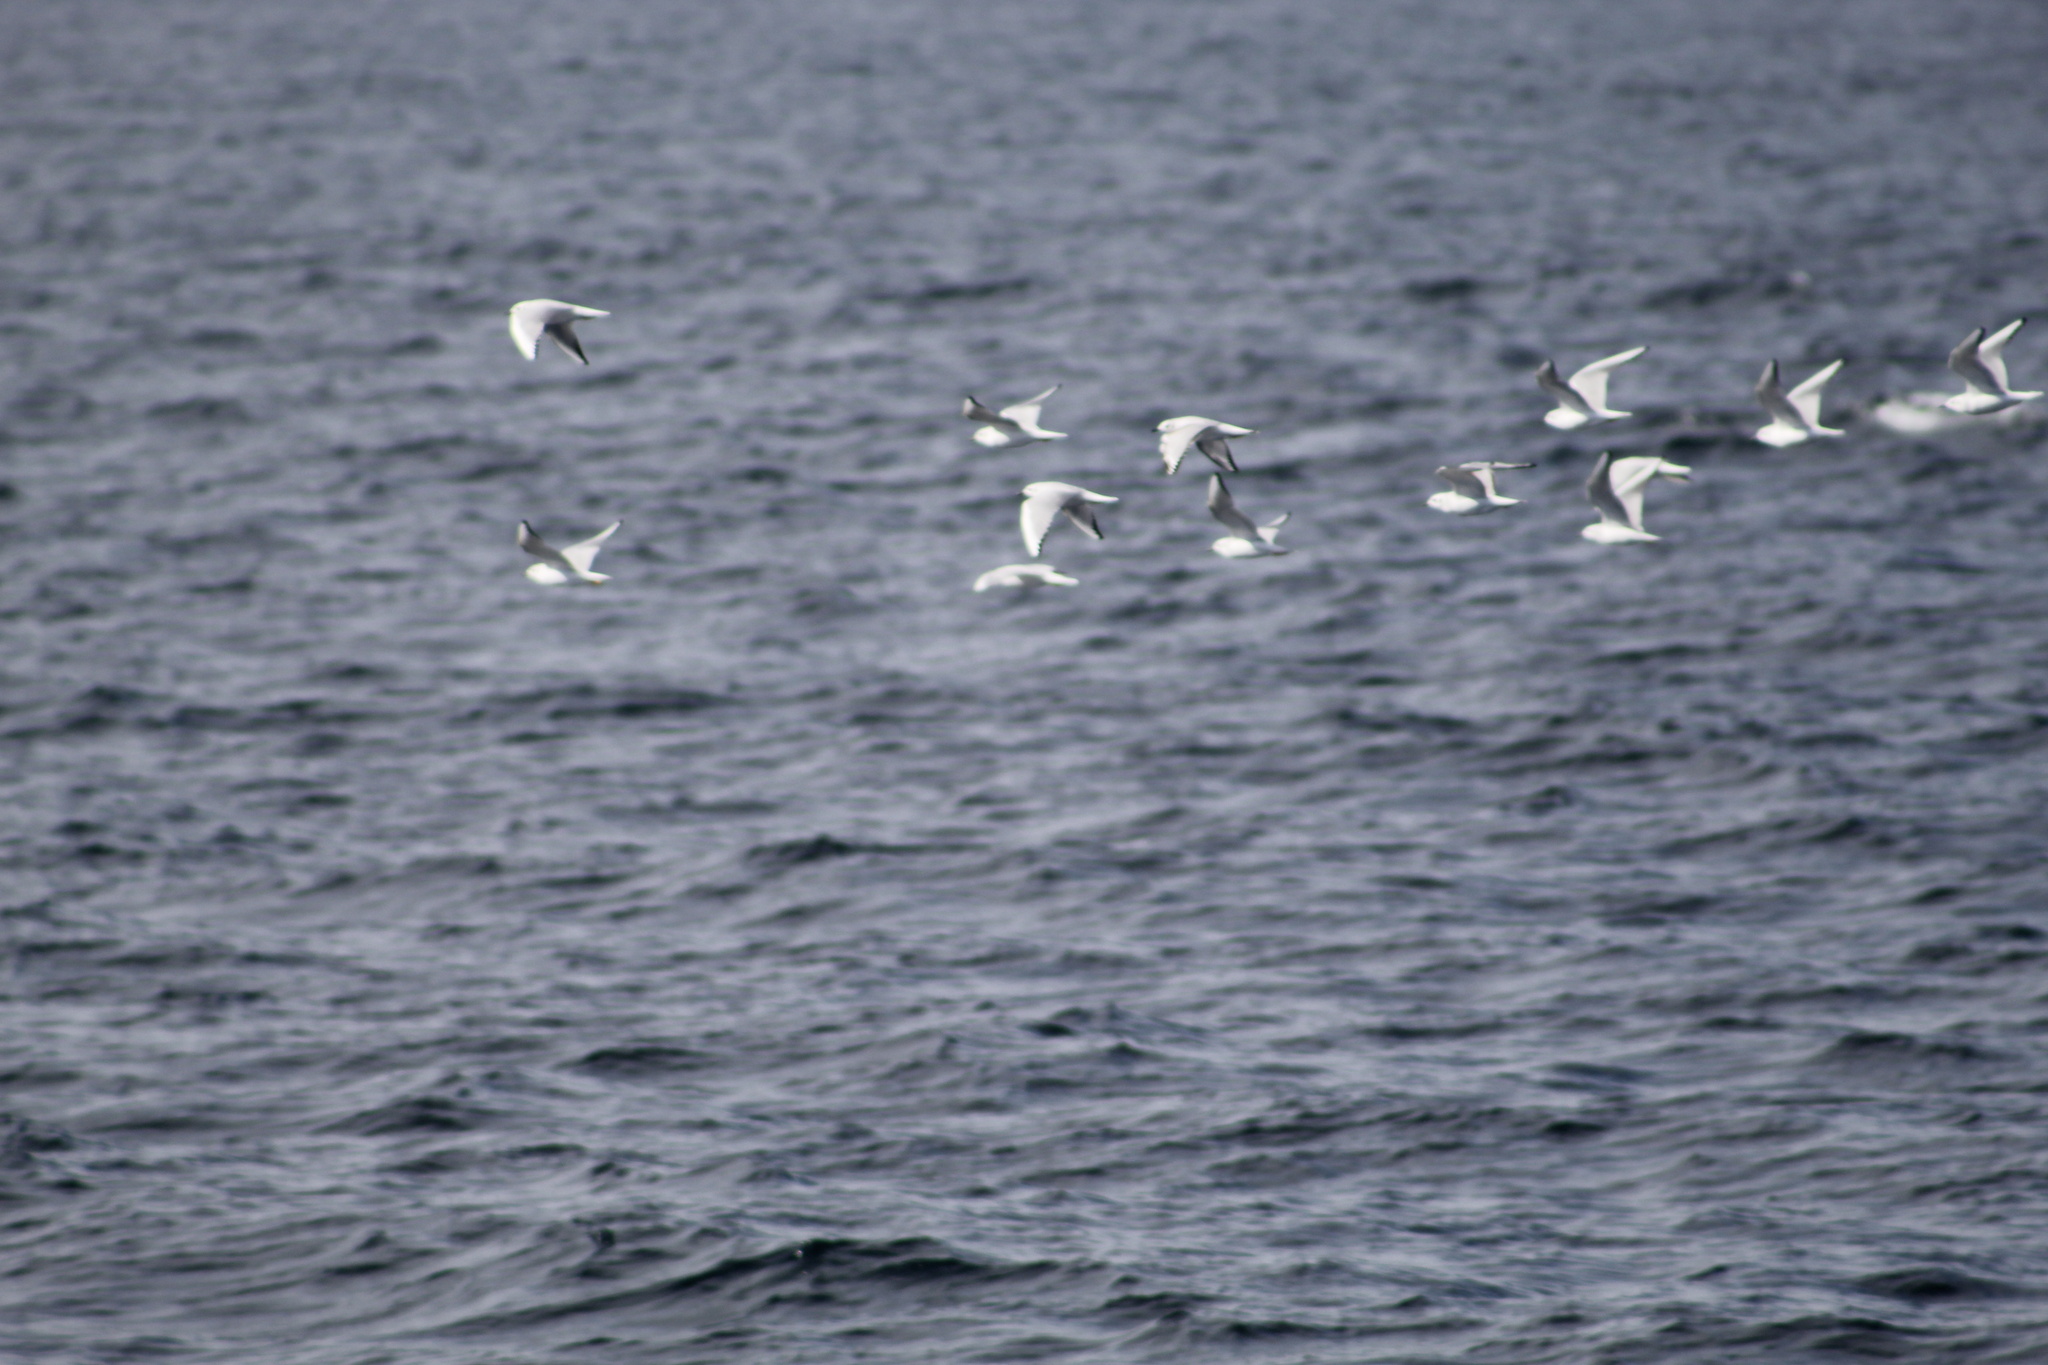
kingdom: Animalia
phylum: Chordata
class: Aves
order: Charadriiformes
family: Laridae
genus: Chroicocephalus
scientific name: Chroicocephalus philadelphia
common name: Bonaparte's gull
